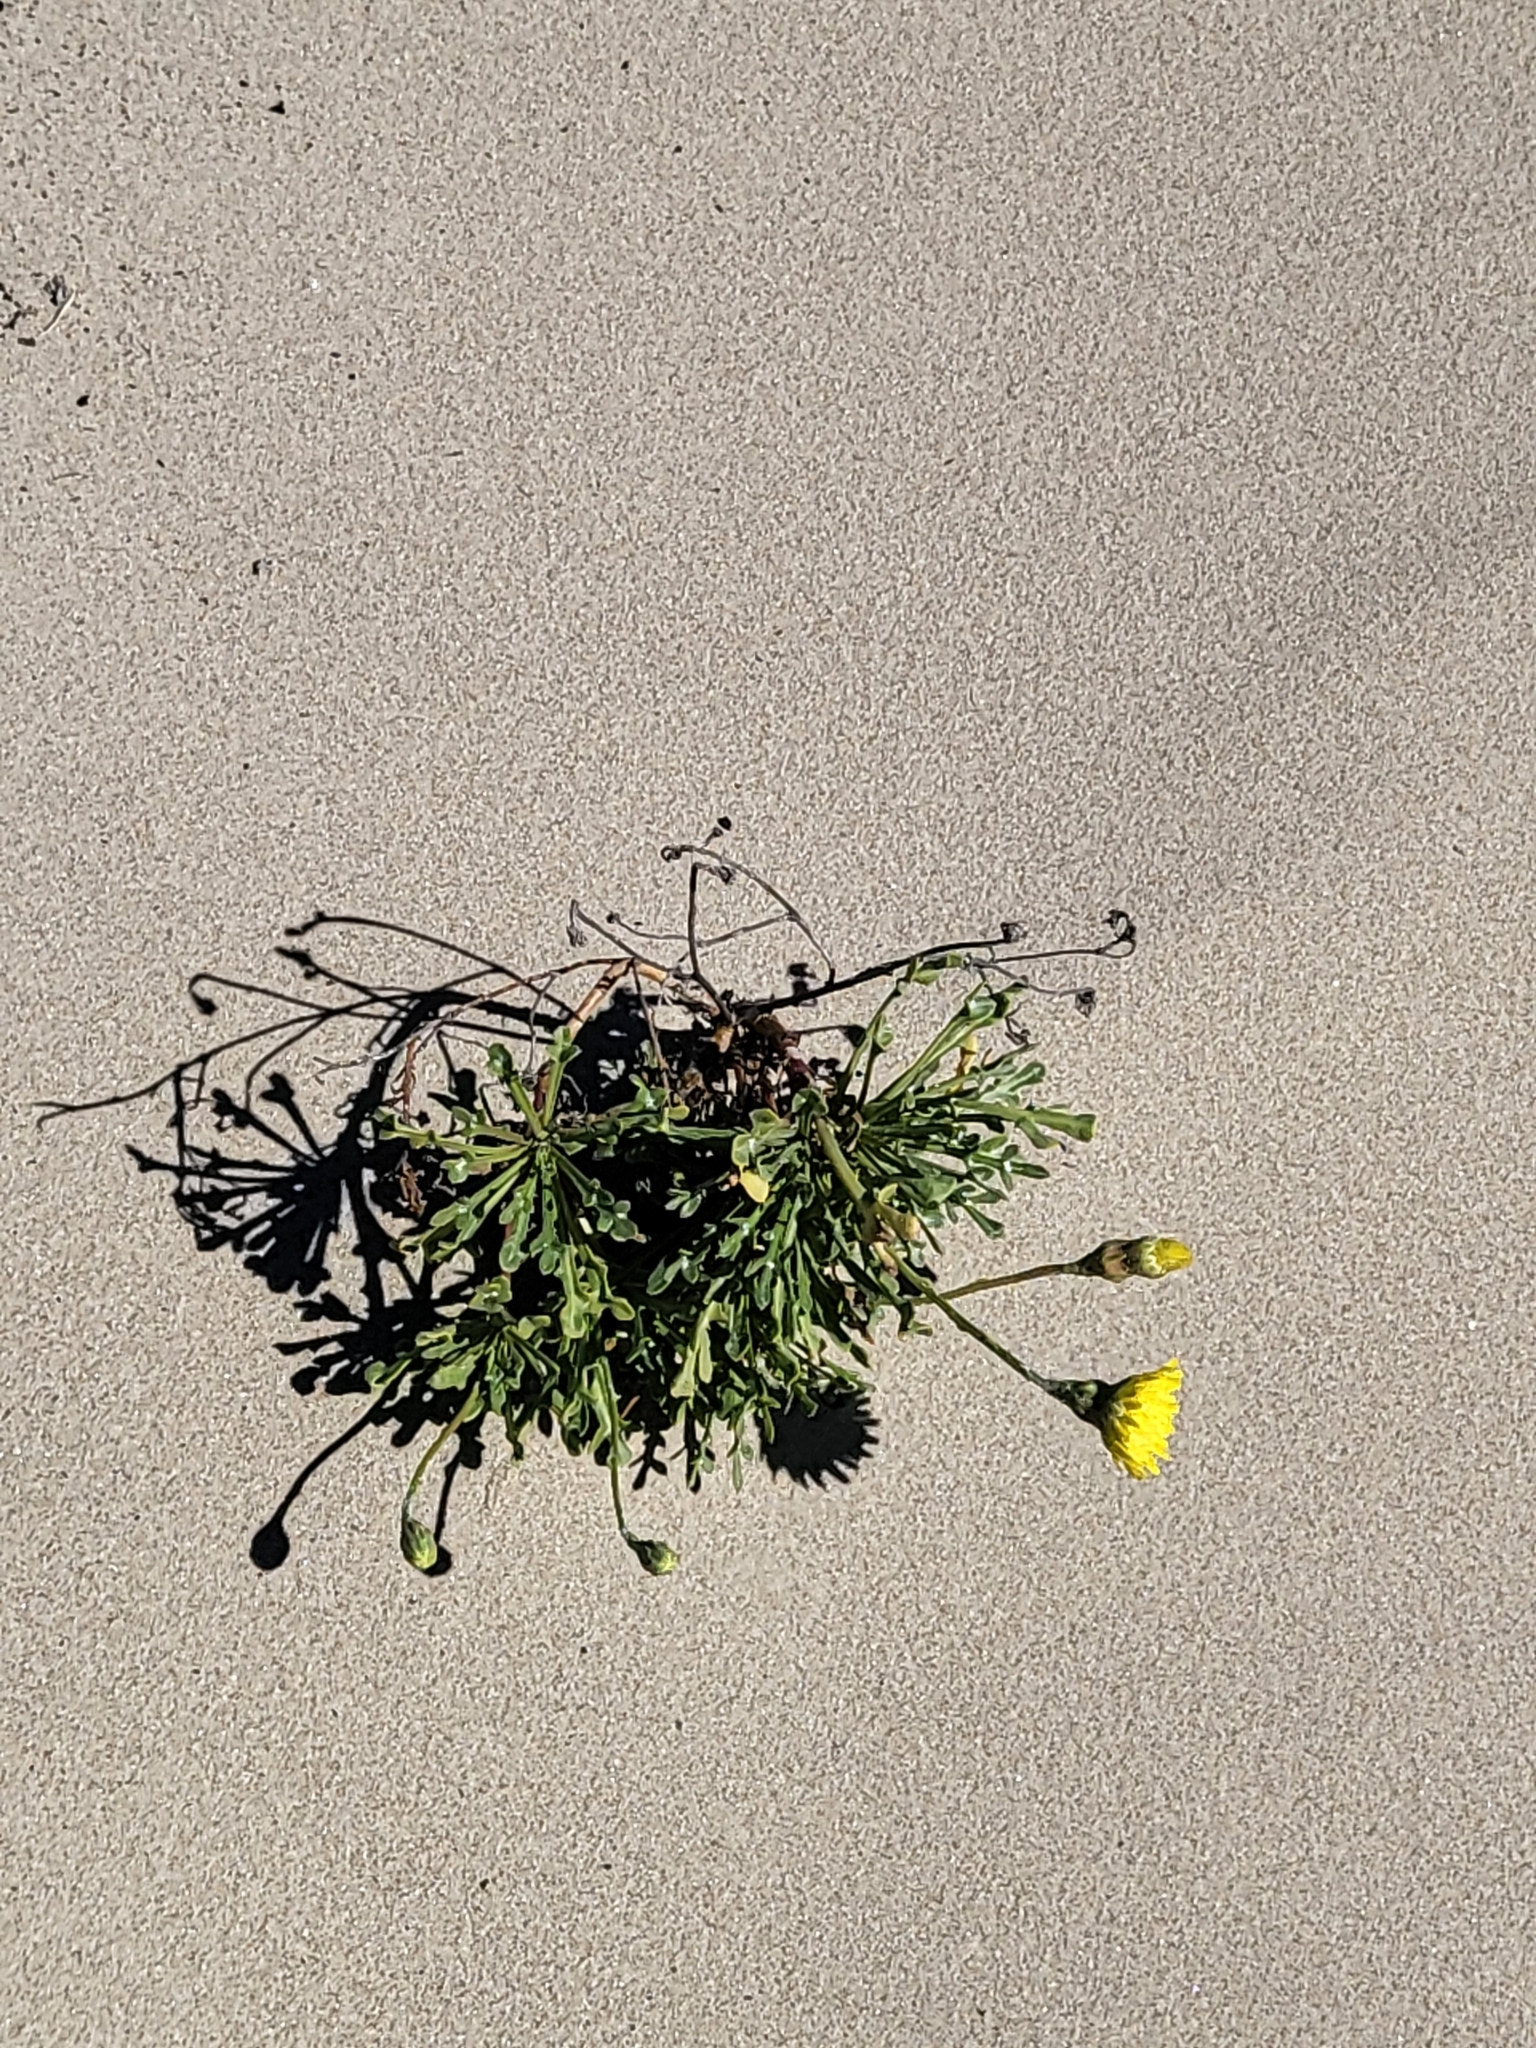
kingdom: Plantae
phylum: Tracheophyta
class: Magnoliopsida
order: Asterales
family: Asteraceae
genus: Malacothrix
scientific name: Malacothrix incana
